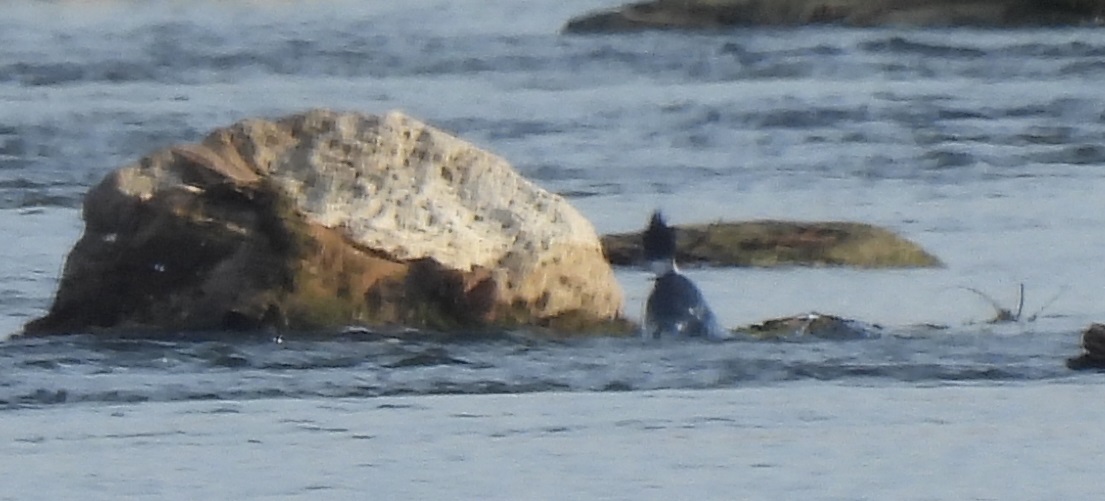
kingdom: Animalia
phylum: Chordata
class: Aves
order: Coraciiformes
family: Alcedinidae
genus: Megaceryle
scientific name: Megaceryle alcyon
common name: Belted kingfisher
